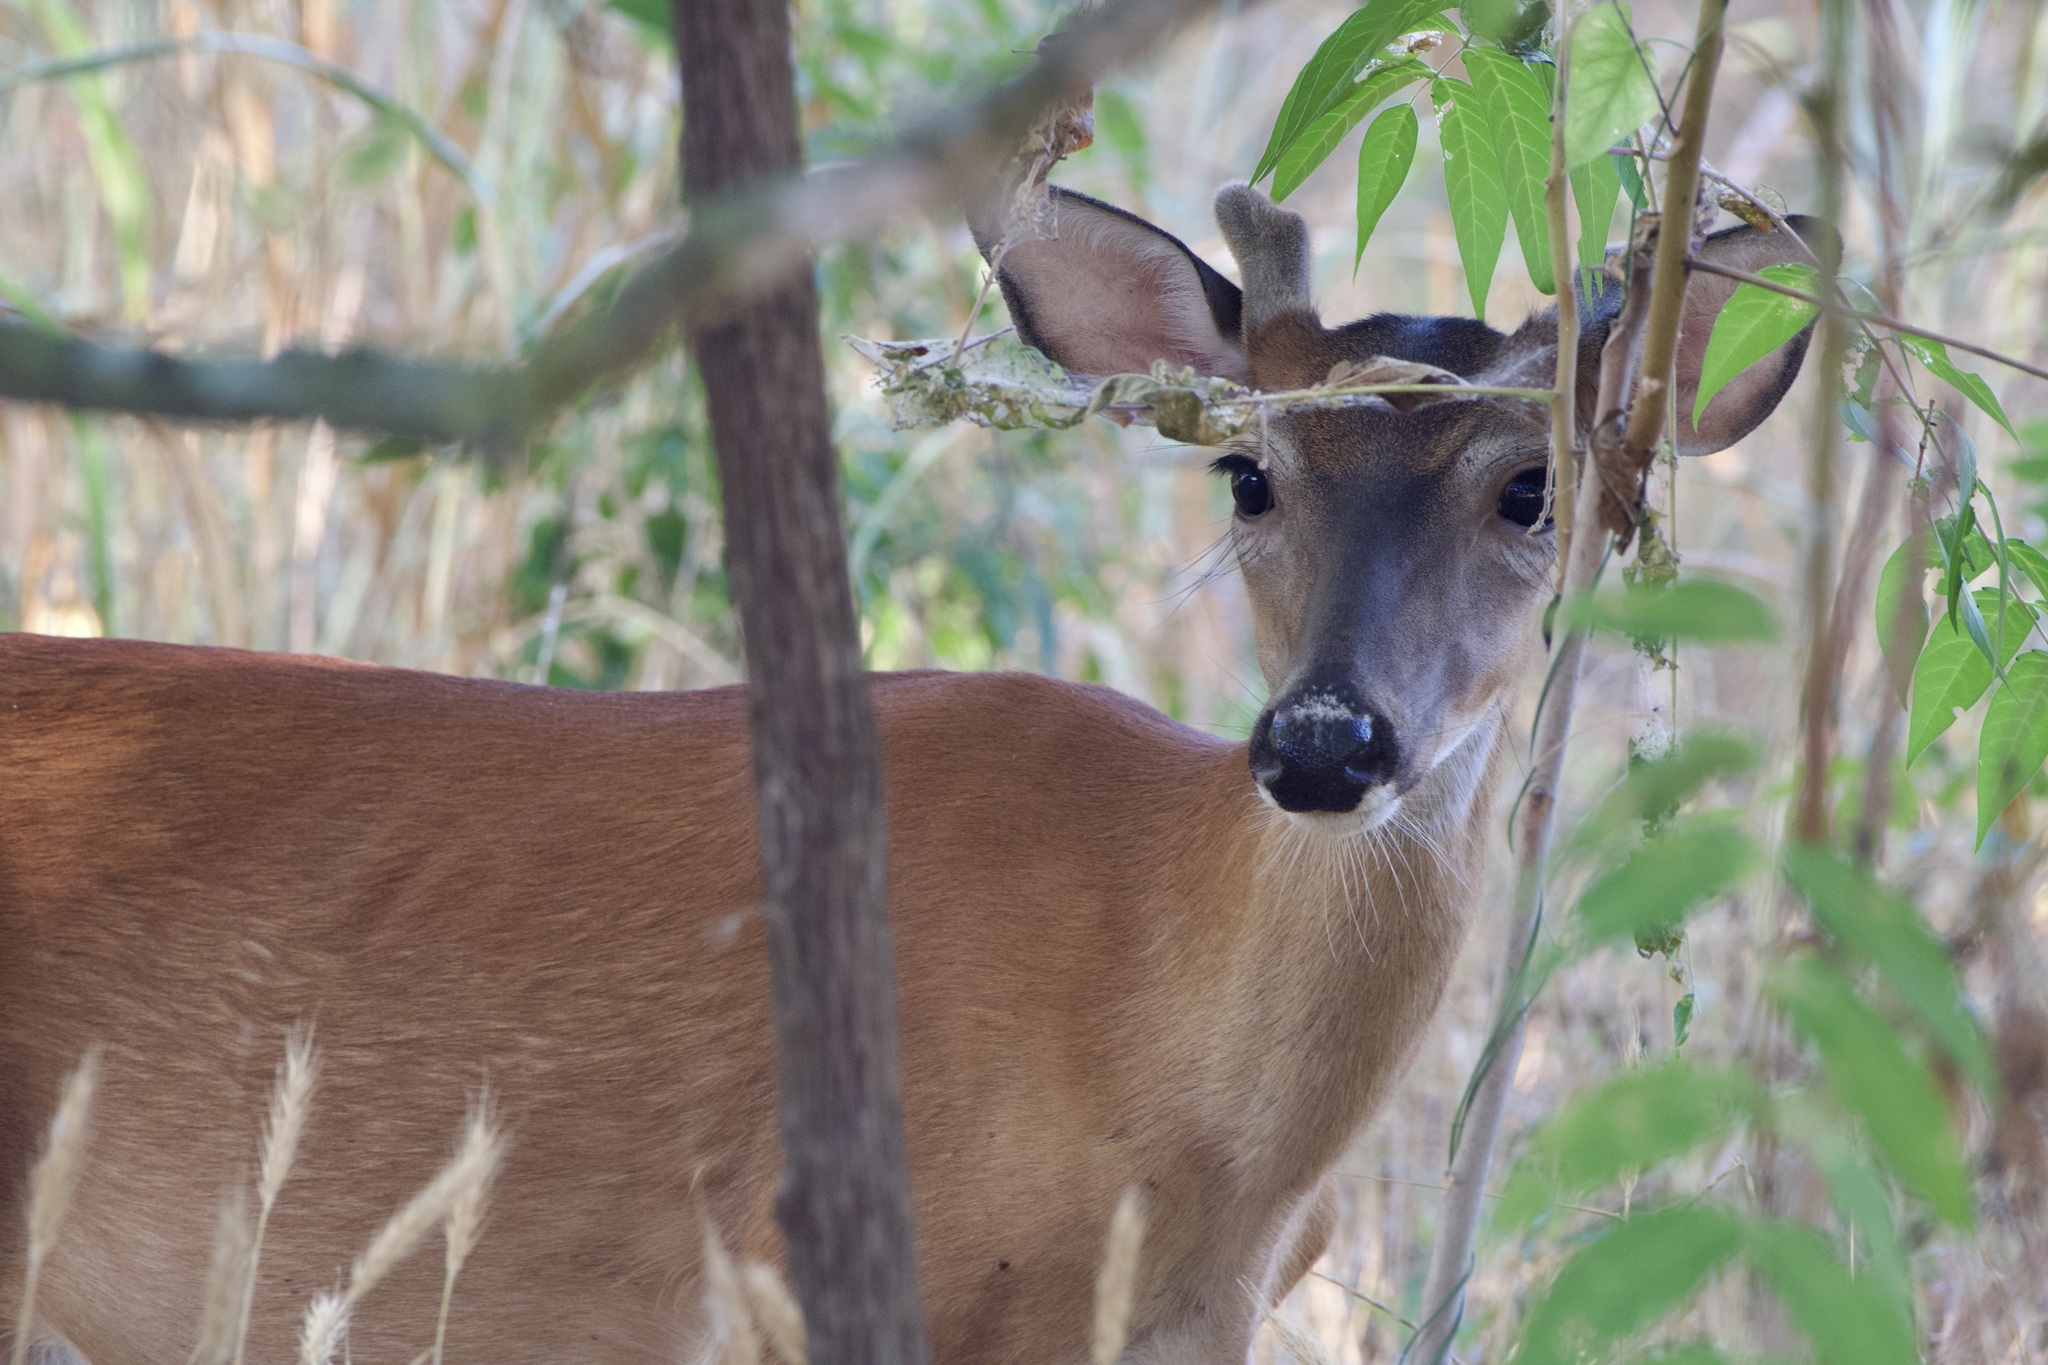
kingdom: Animalia
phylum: Chordata
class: Mammalia
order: Artiodactyla
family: Cervidae
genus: Odocoileus
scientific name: Odocoileus virginianus
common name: White-tailed deer
